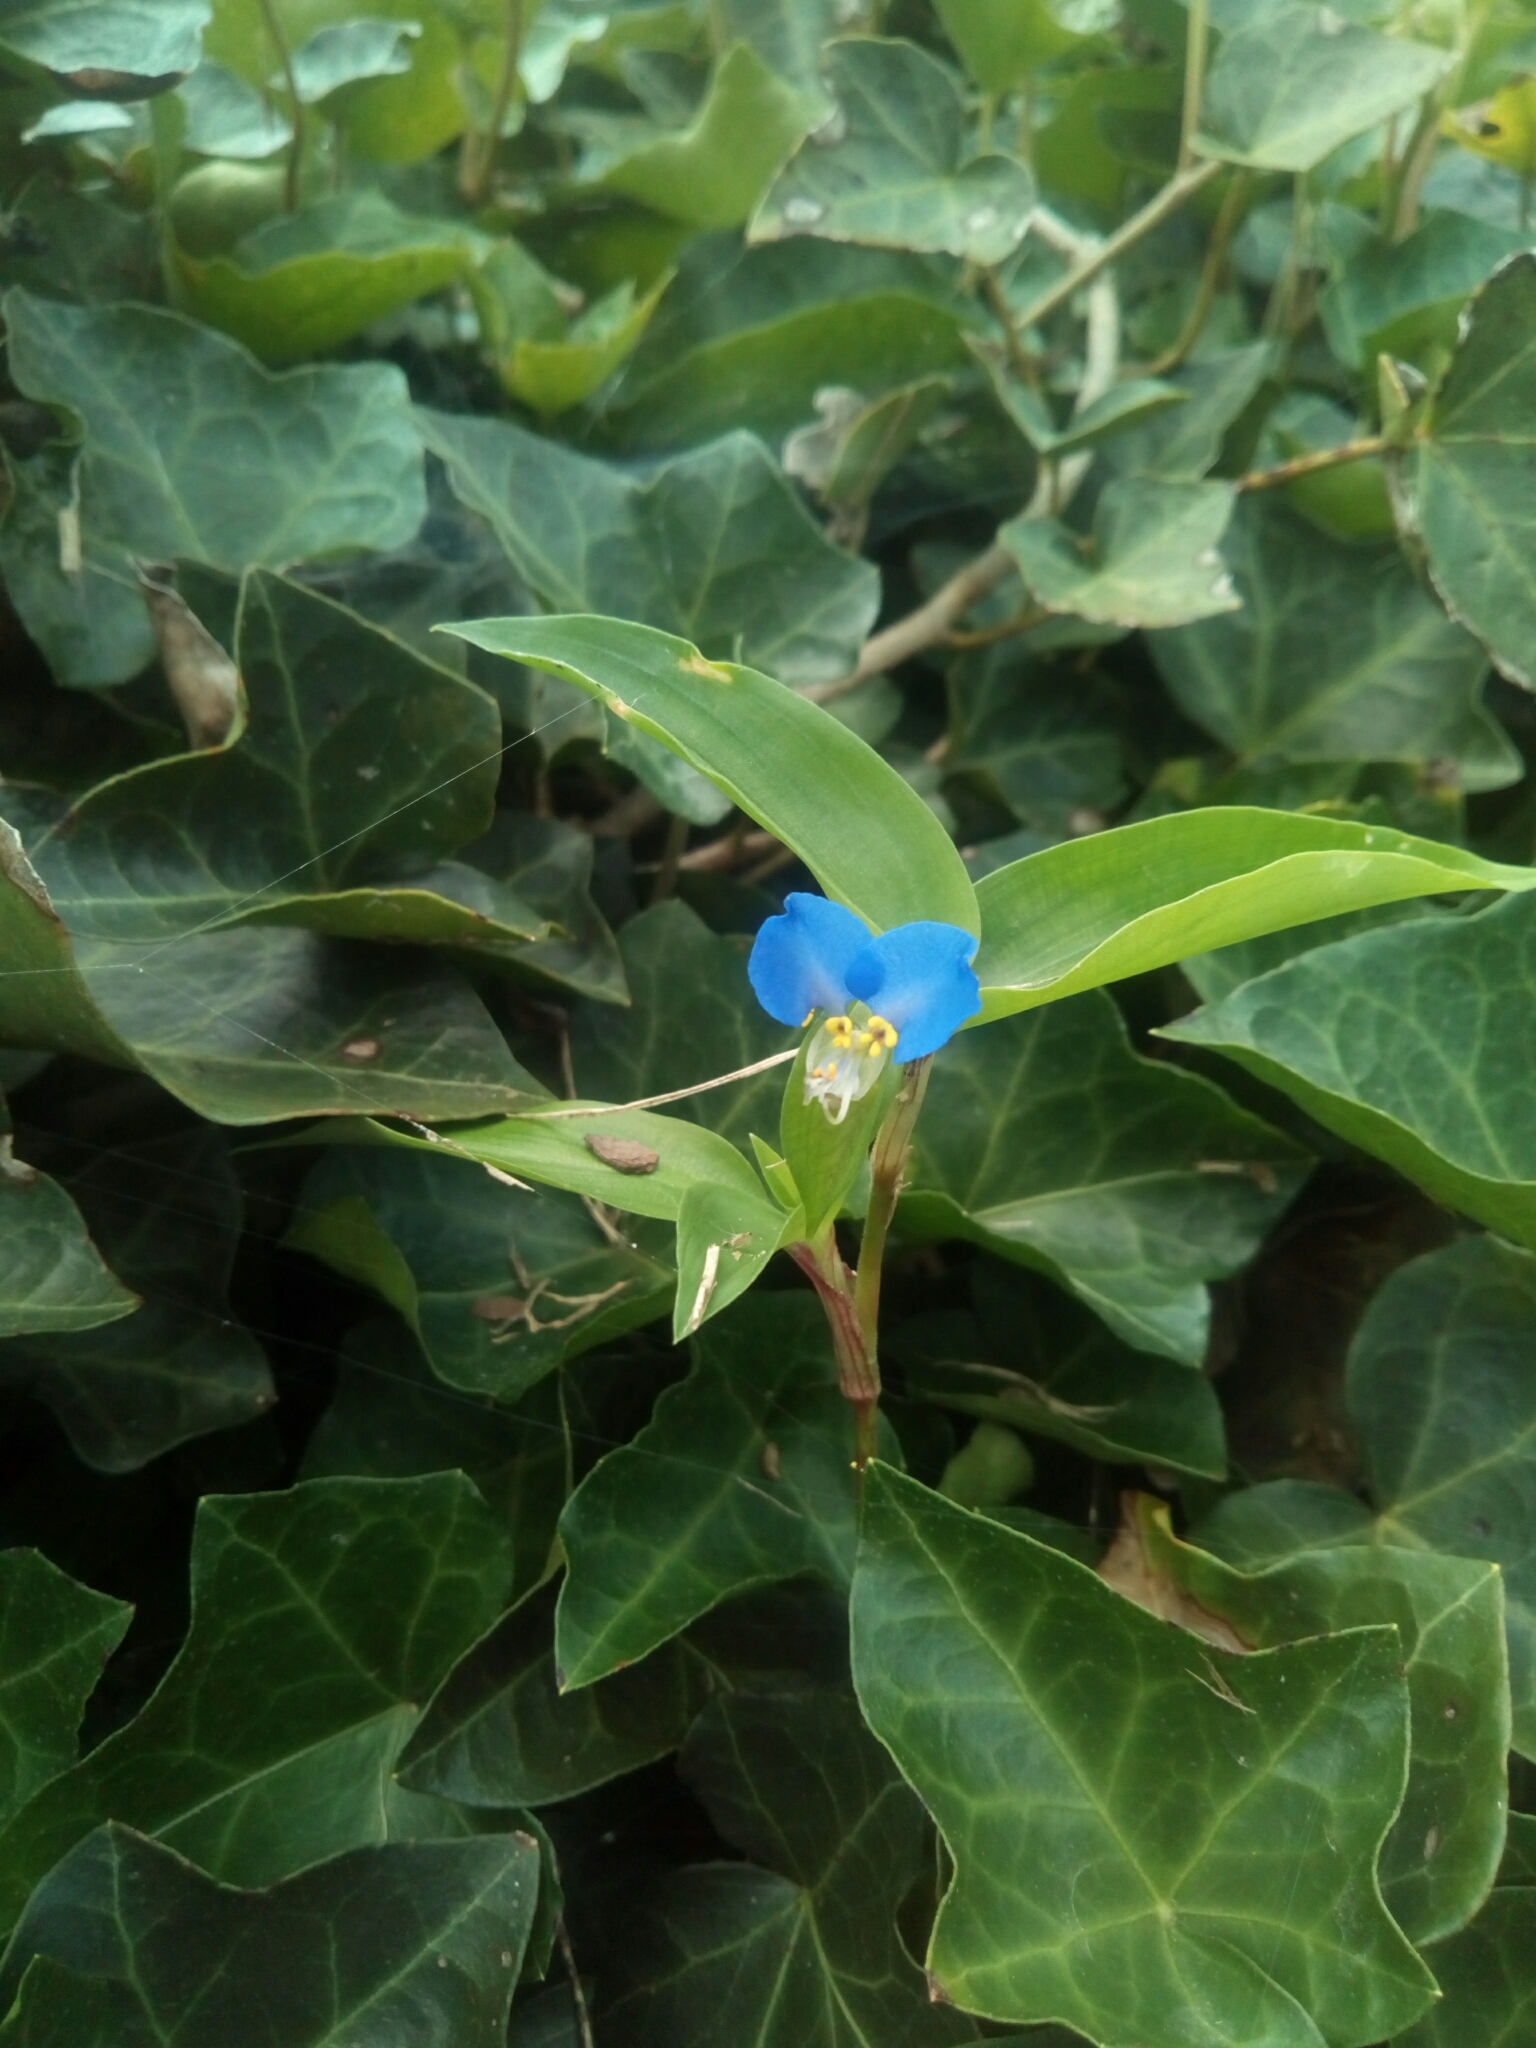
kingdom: Plantae
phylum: Tracheophyta
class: Liliopsida
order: Commelinales
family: Commelinaceae
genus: Commelina
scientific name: Commelina communis
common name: Asiatic dayflower
